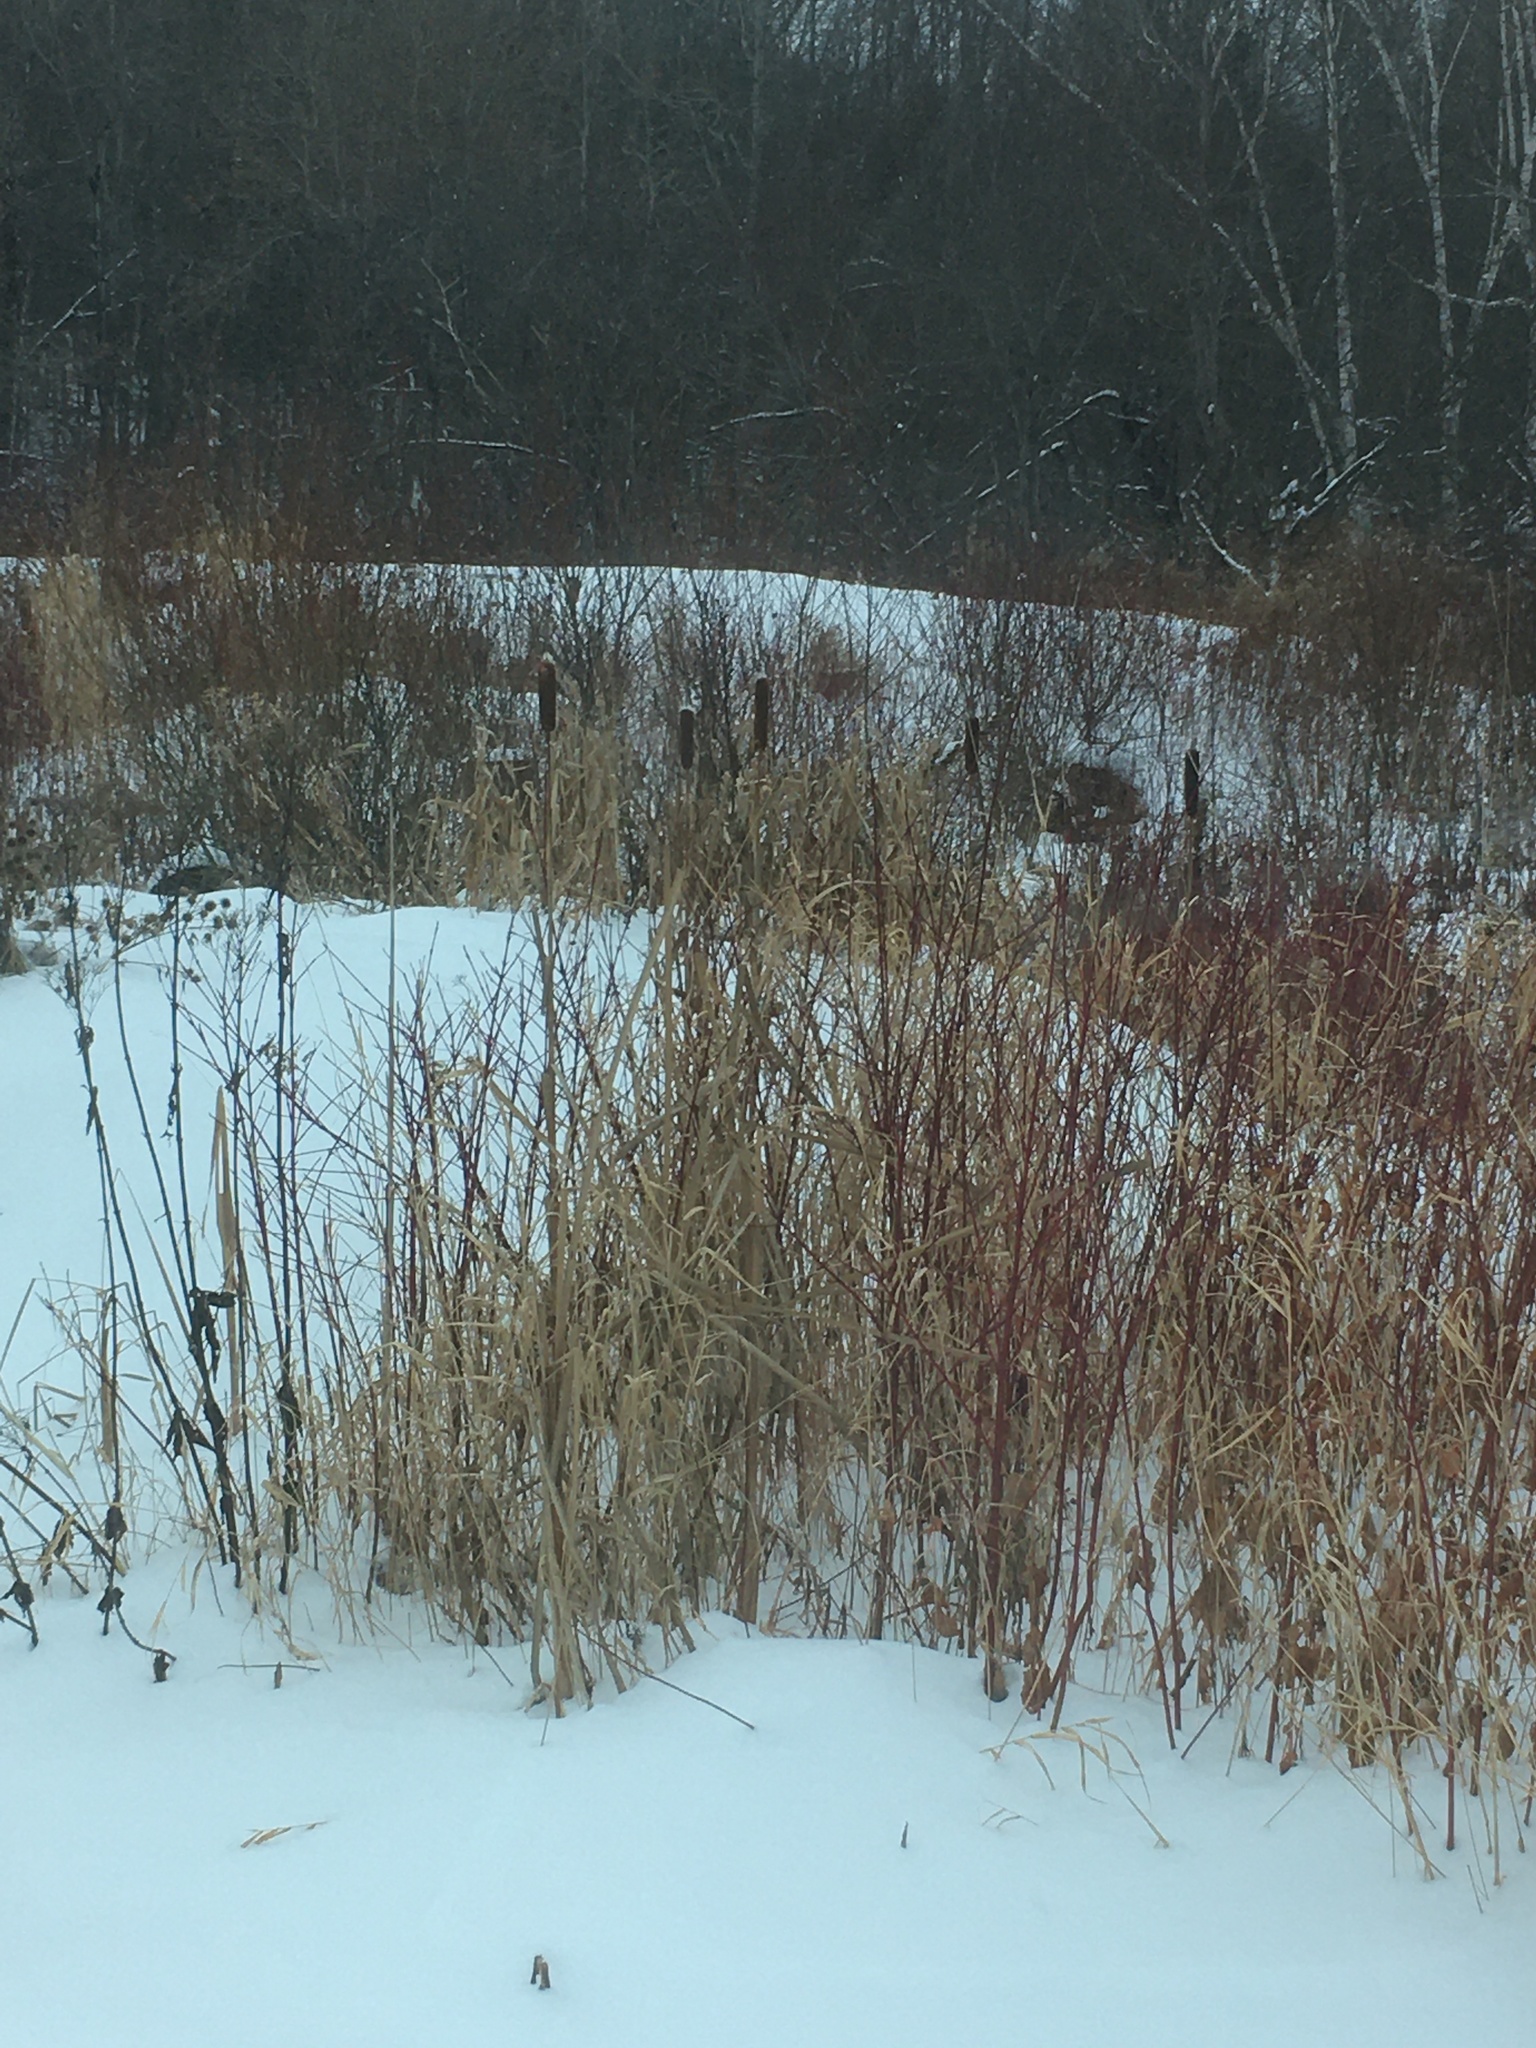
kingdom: Plantae
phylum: Tracheophyta
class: Liliopsida
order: Poales
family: Typhaceae
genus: Typha
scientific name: Typha latifolia
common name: Broadleaf cattail
